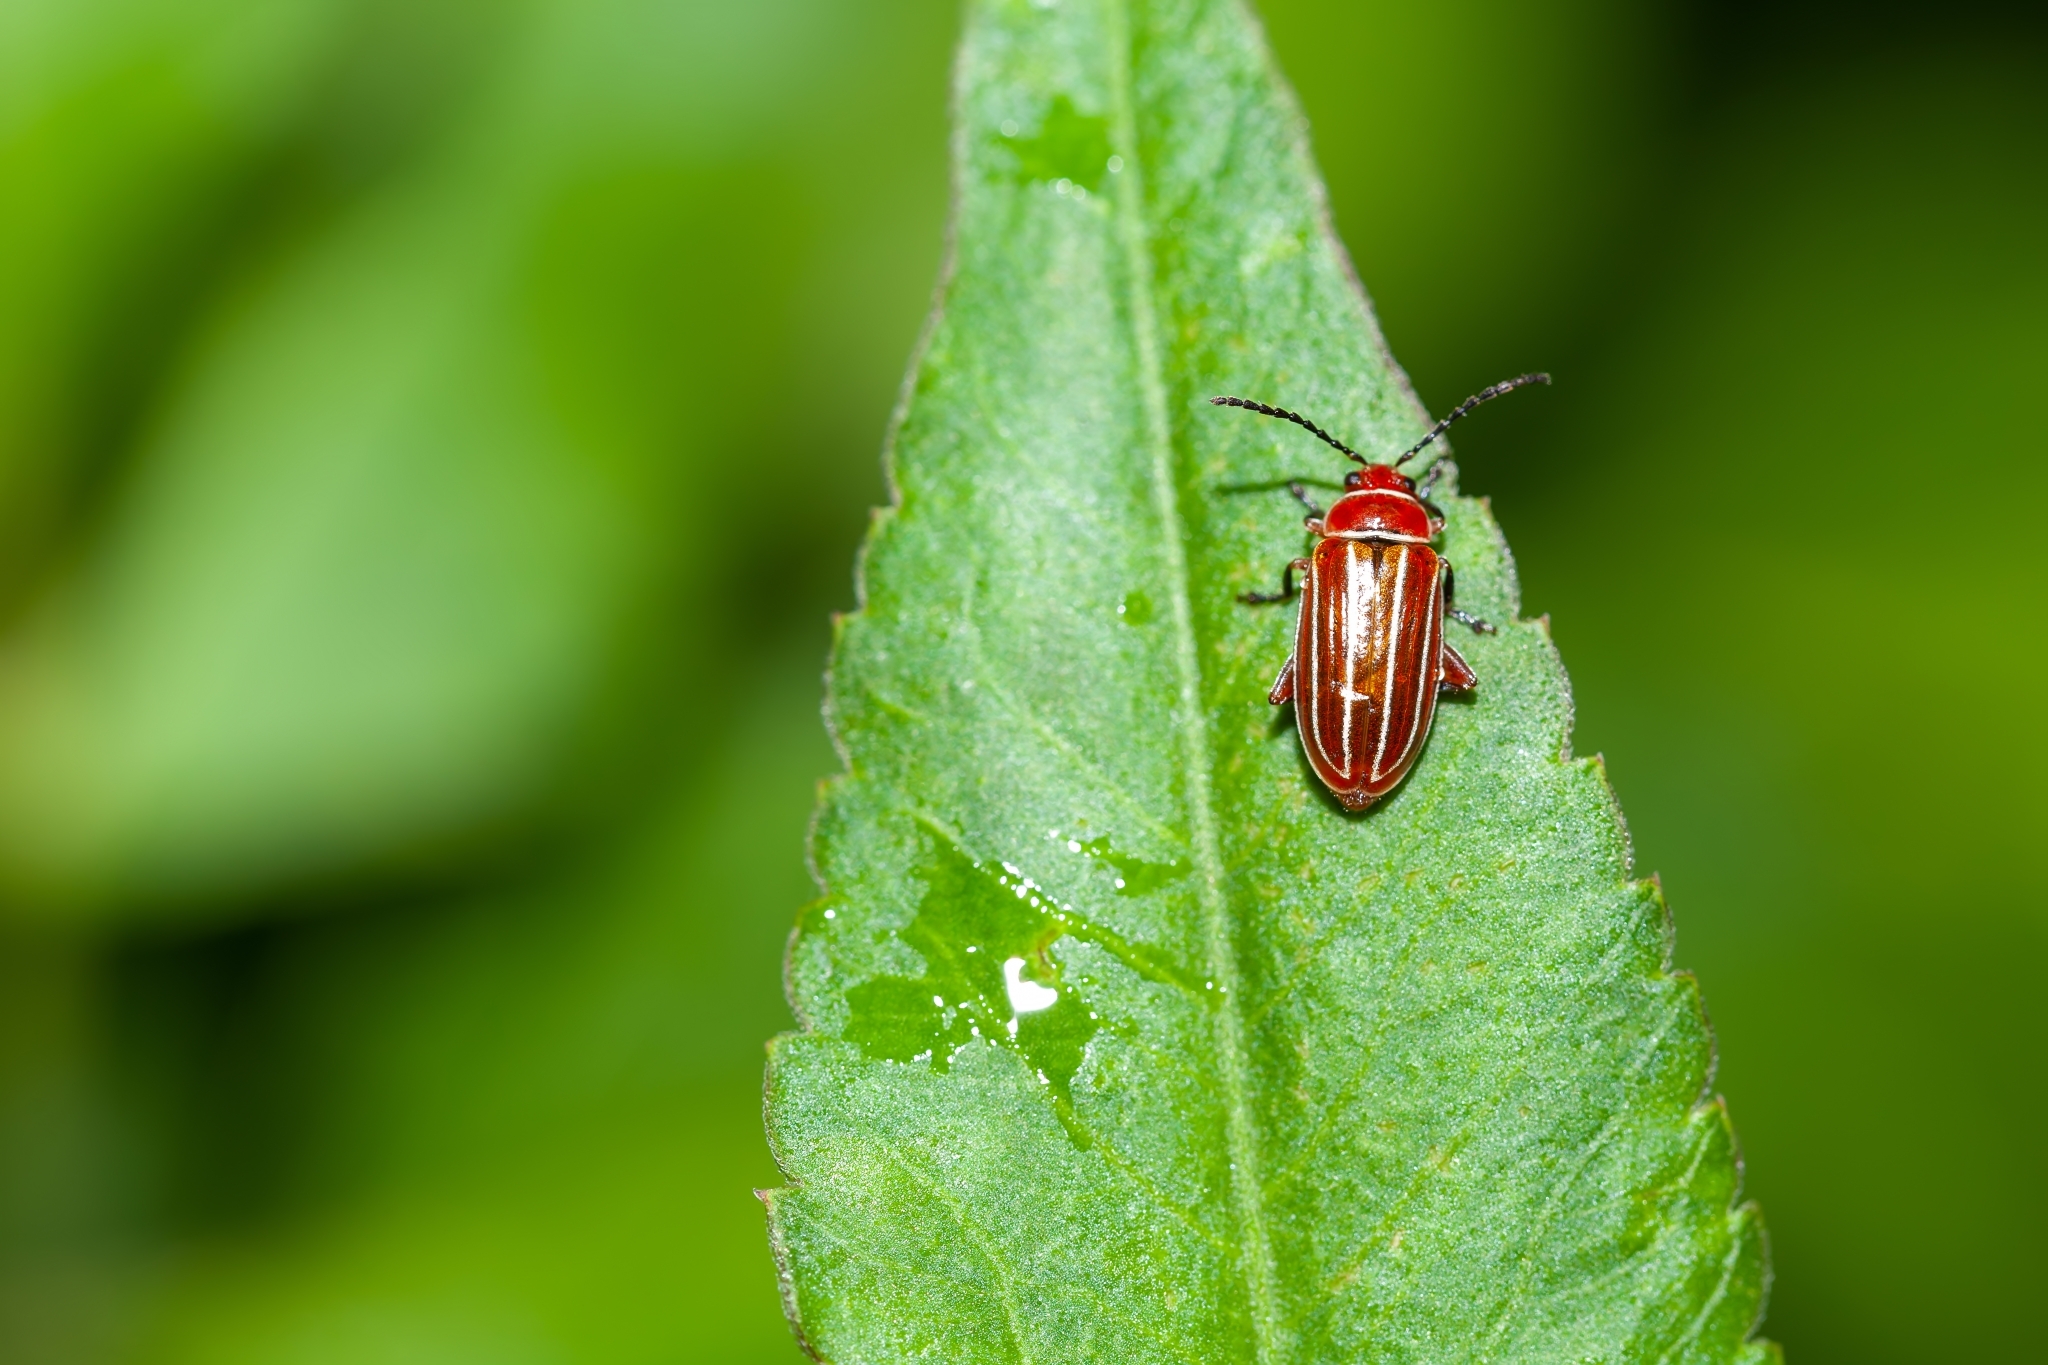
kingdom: Animalia
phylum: Arthropoda
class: Insecta
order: Coleoptera
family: Chrysomelidae
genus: Disonycha
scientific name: Disonycha conjugata
